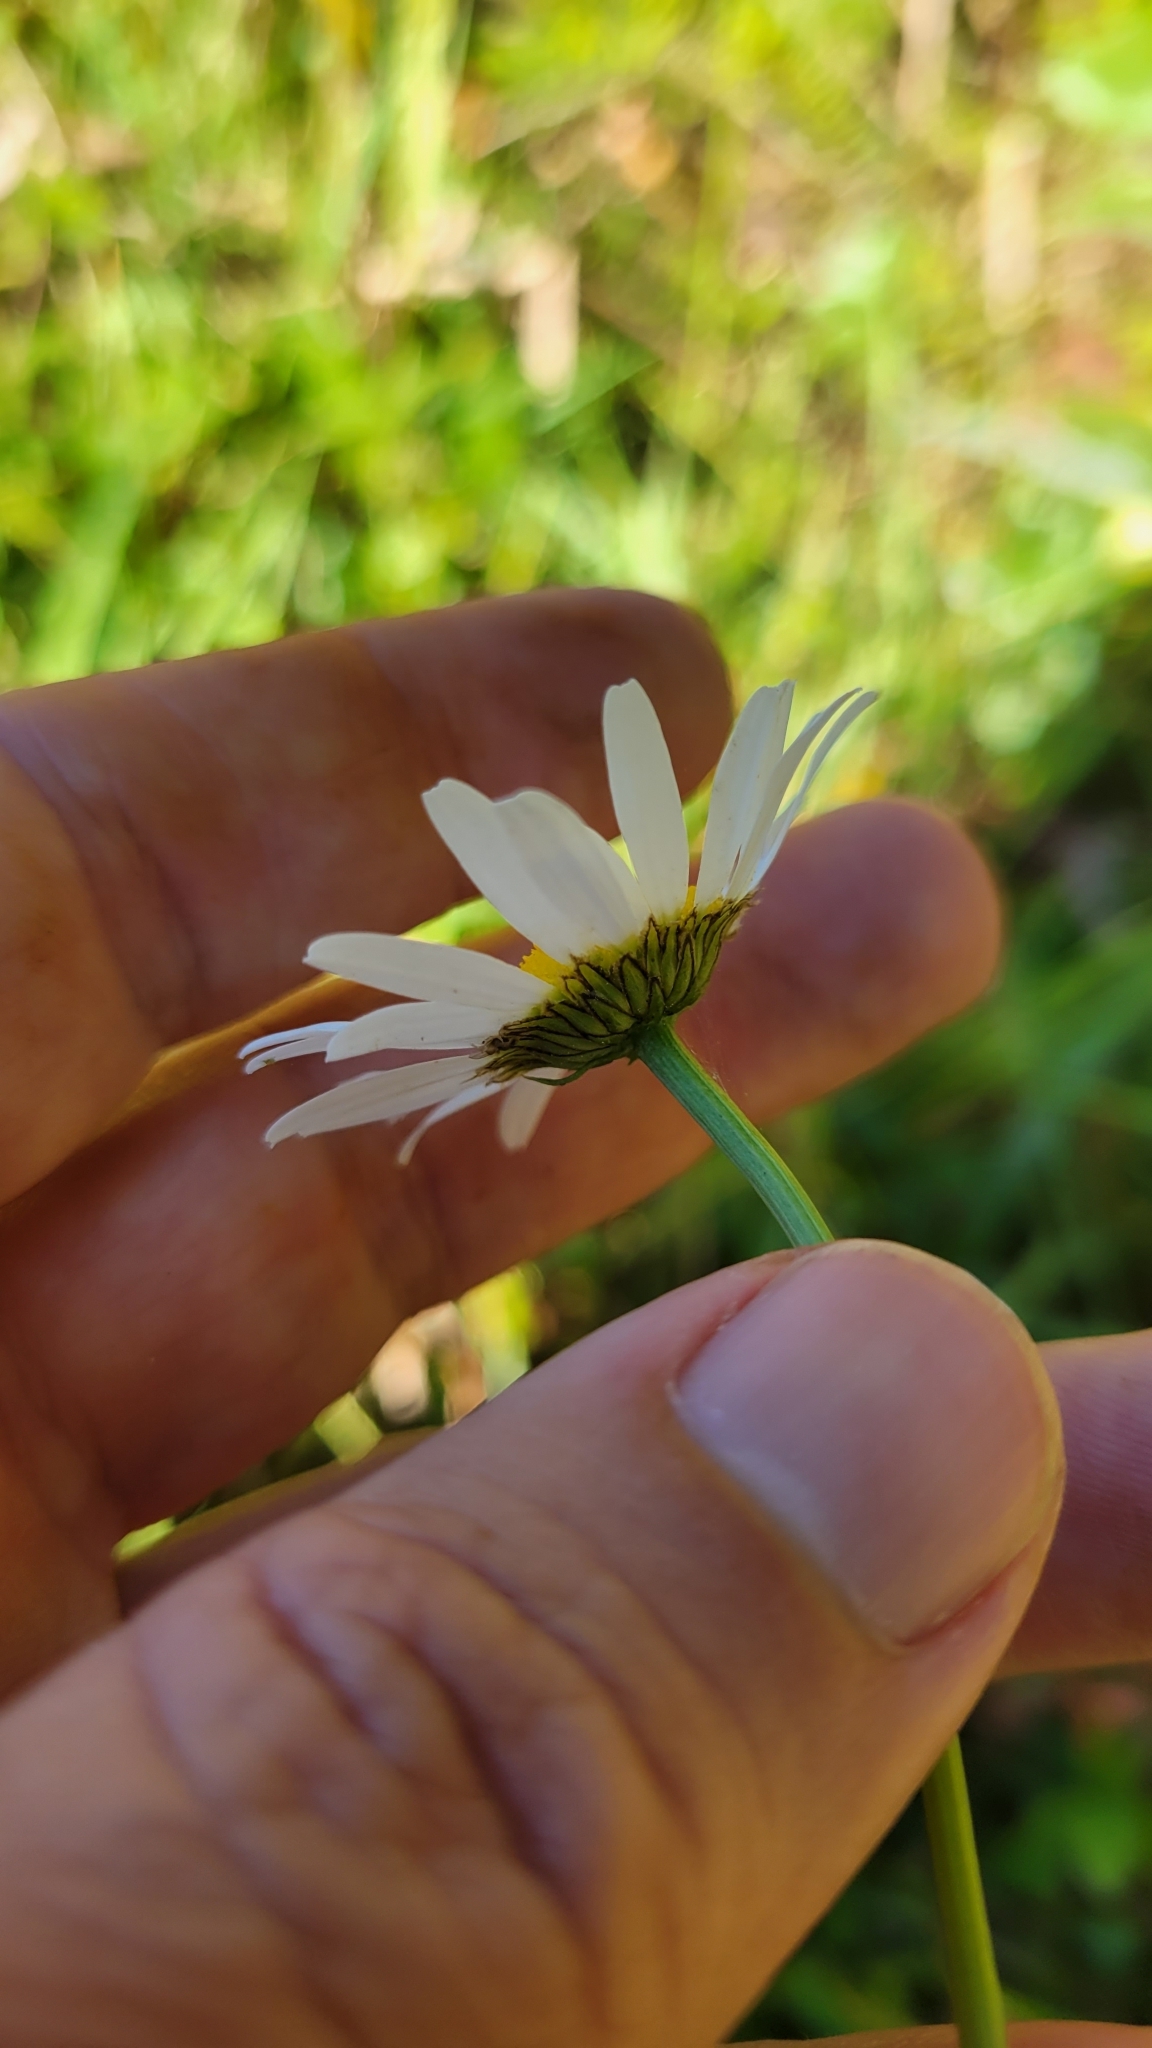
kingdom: Plantae
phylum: Tracheophyta
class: Magnoliopsida
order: Asterales
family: Asteraceae
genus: Leucanthemum
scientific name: Leucanthemum vulgare
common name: Oxeye daisy
